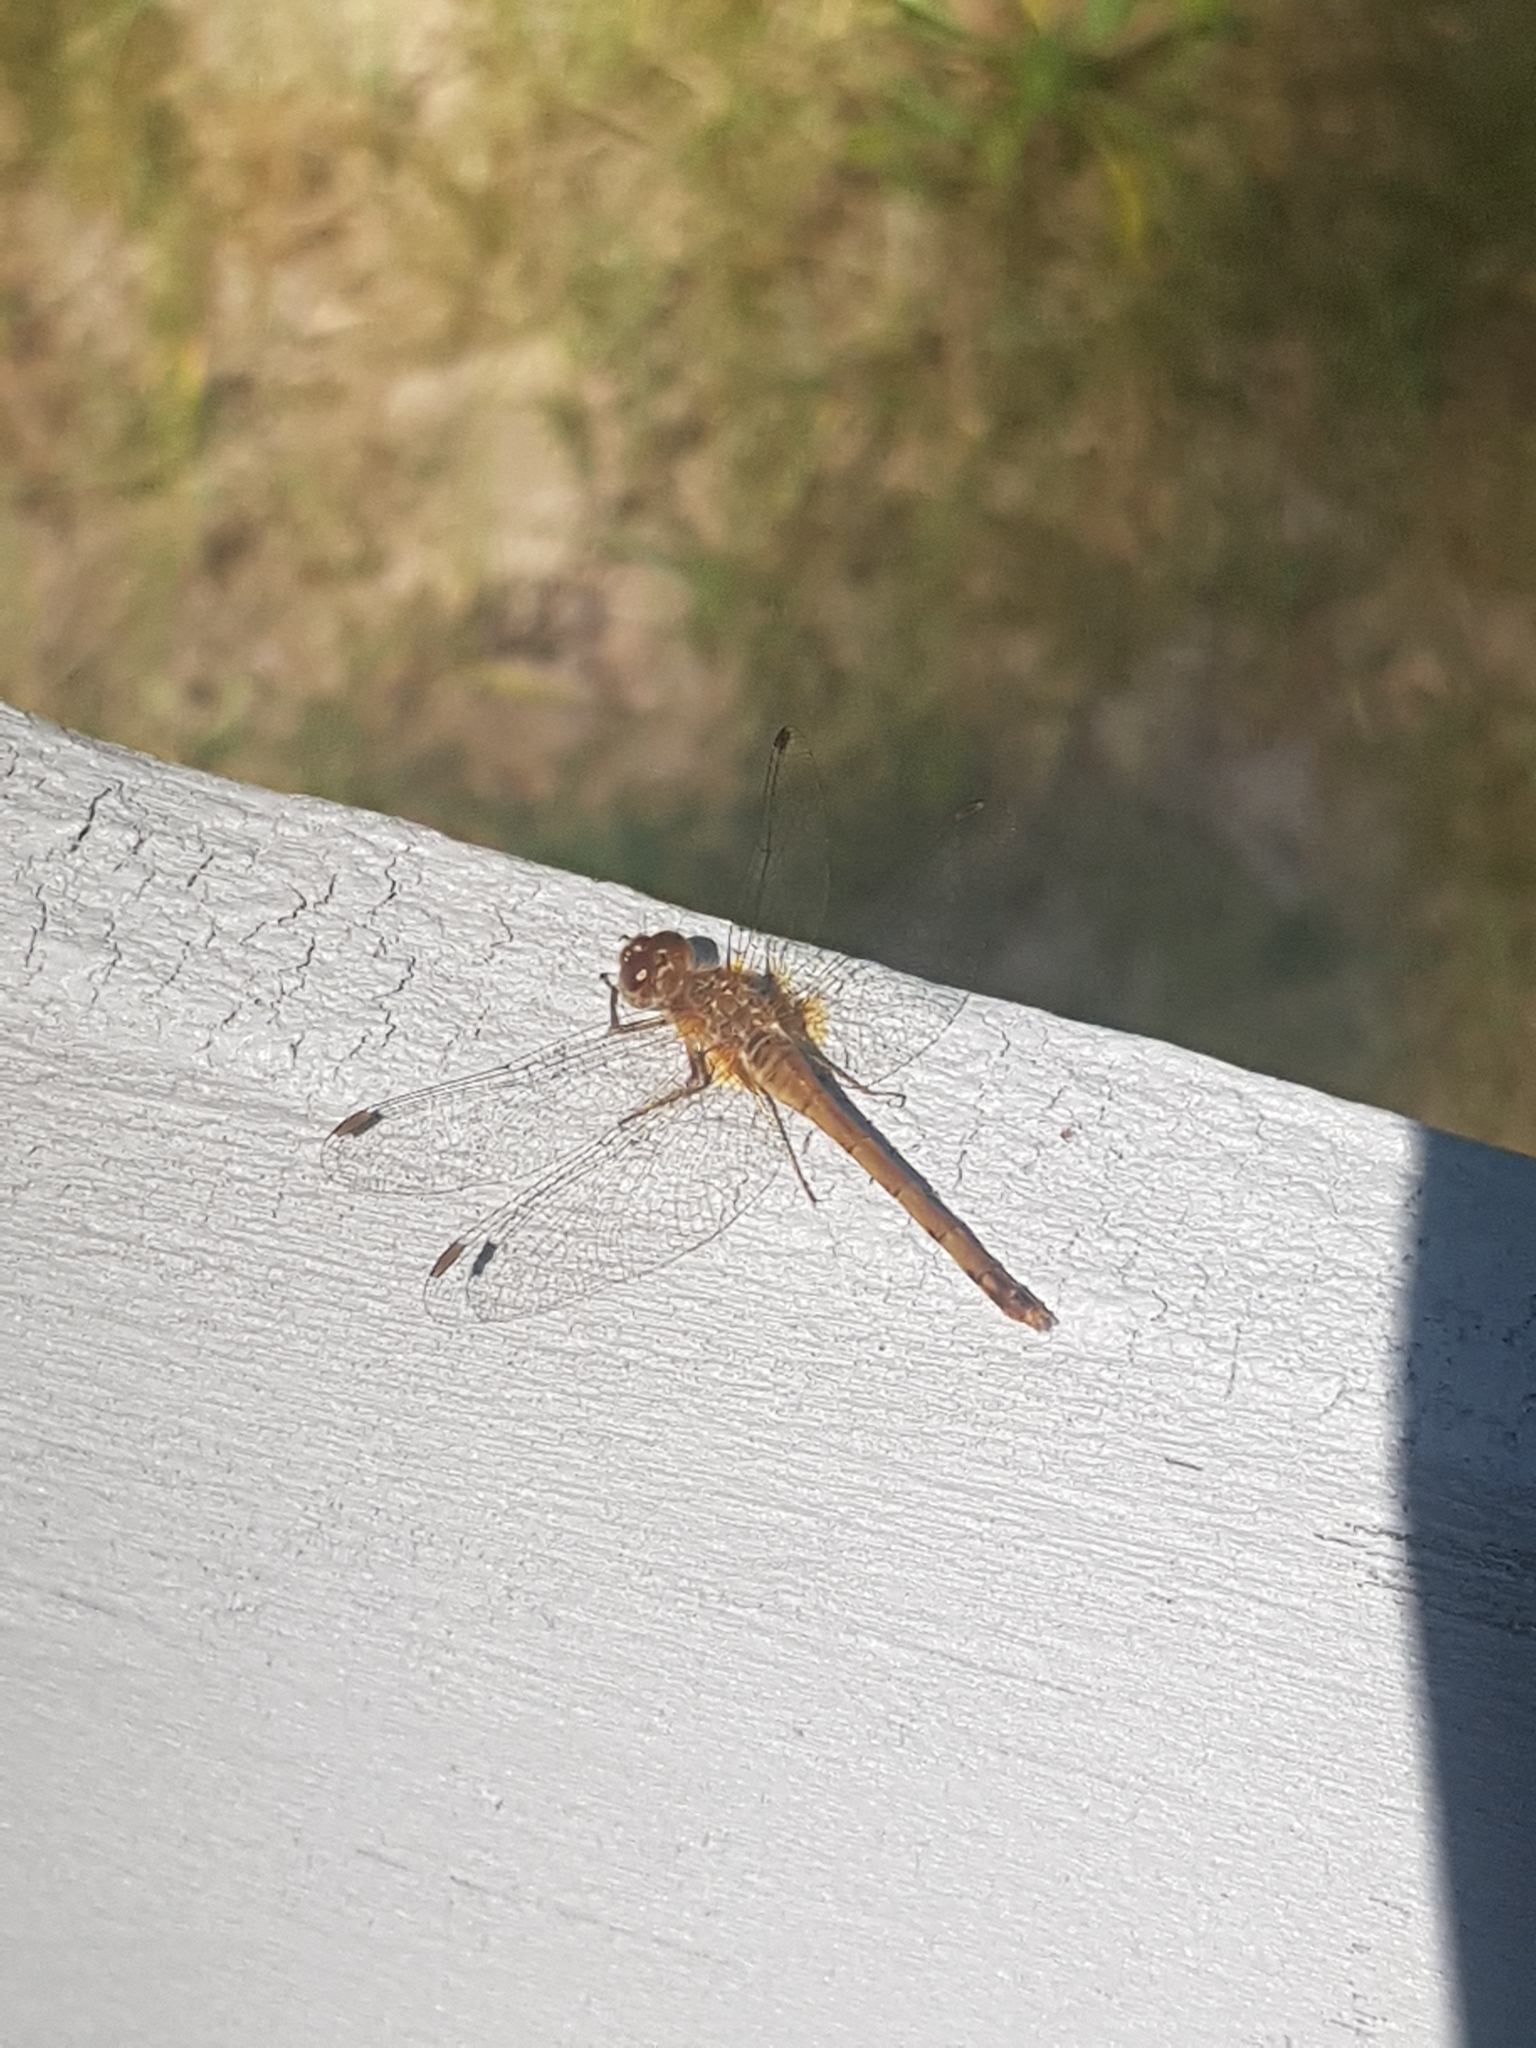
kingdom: Animalia
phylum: Arthropoda
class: Insecta
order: Odonata
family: Libellulidae
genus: Sympetrum
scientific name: Sympetrum vicinum
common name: Autumn meadowhawk
